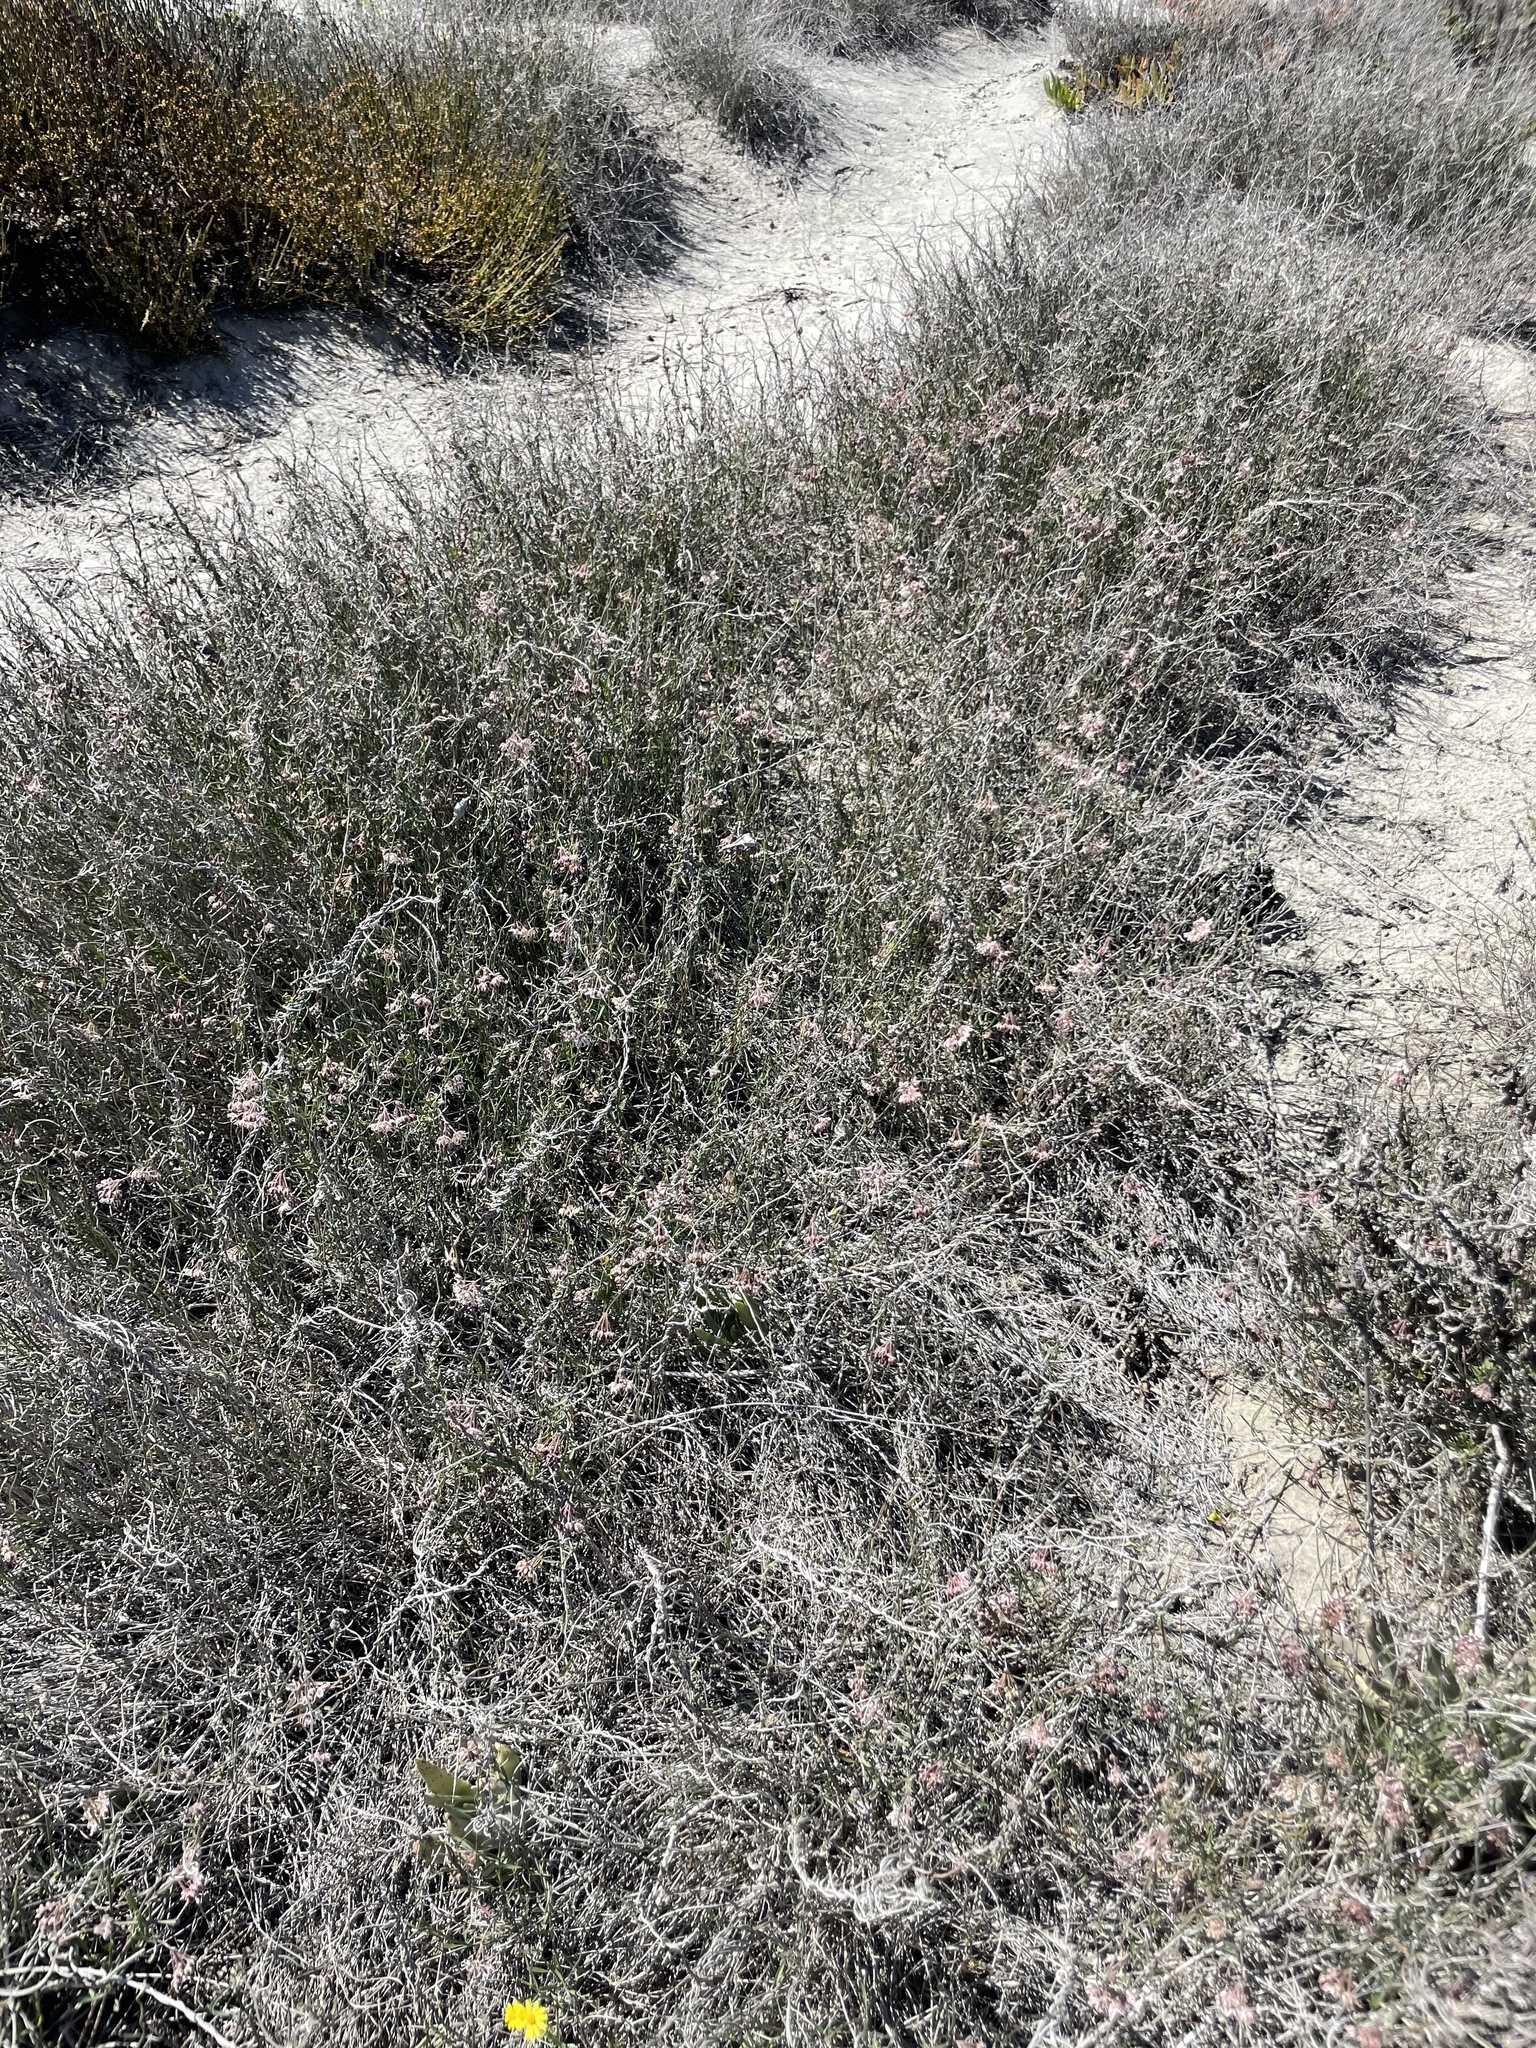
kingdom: Plantae
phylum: Tracheophyta
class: Magnoliopsida
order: Gentianales
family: Apocynaceae
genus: Funastrum
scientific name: Funastrum arenarium
